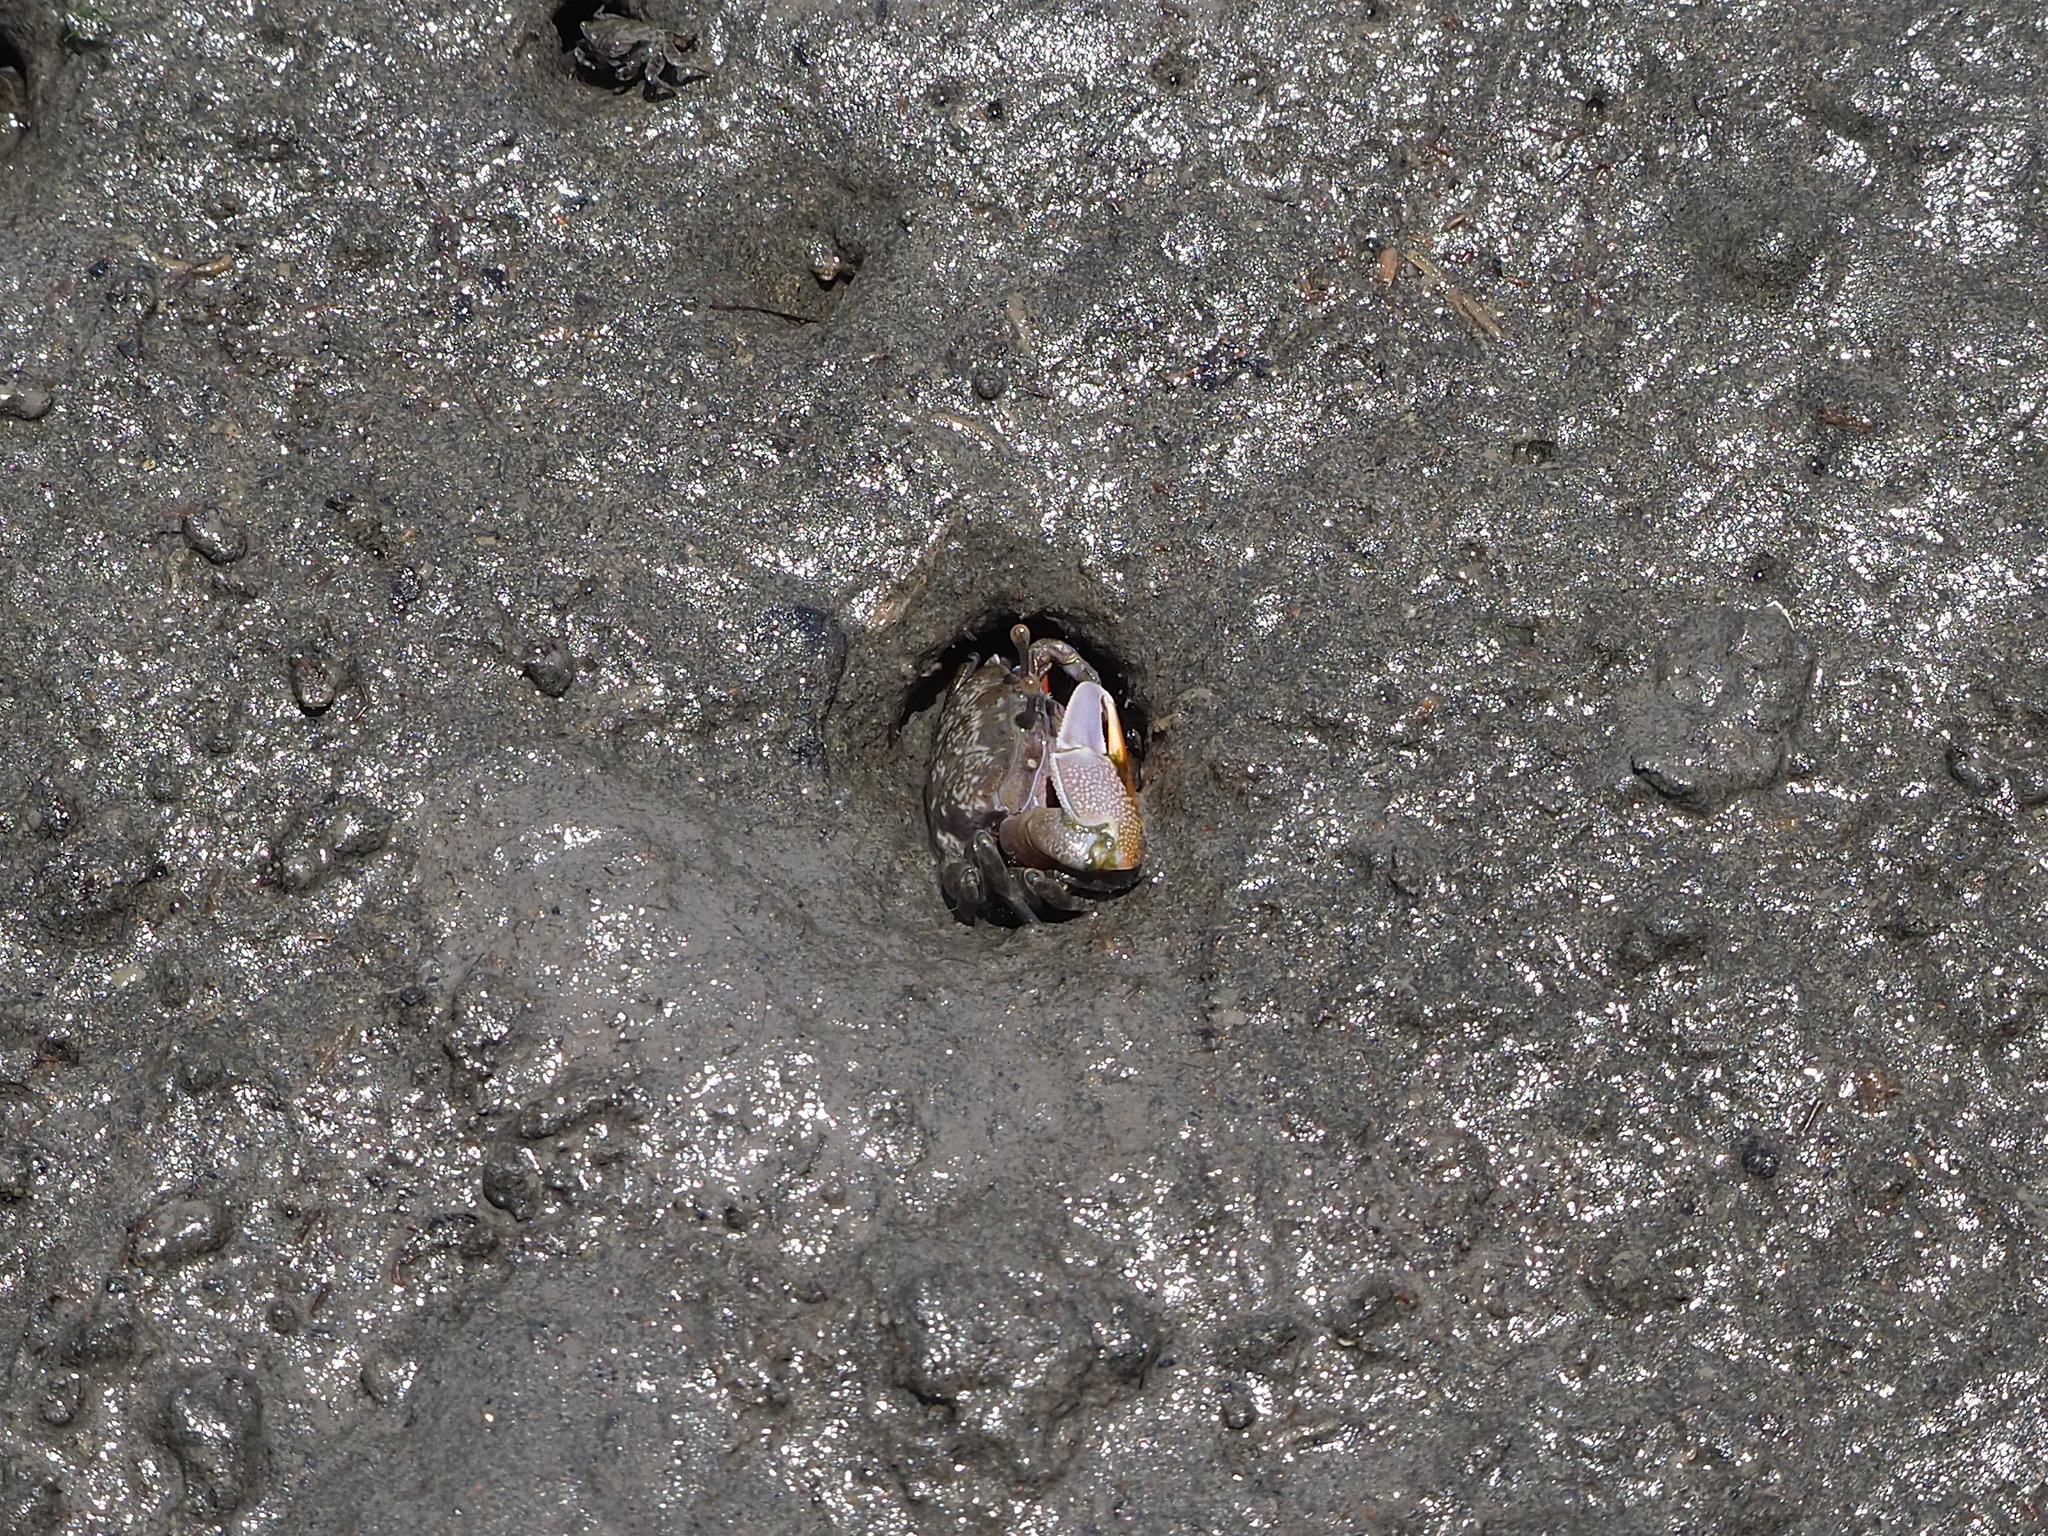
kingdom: Animalia
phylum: Arthropoda
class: Malacostraca
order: Decapoda
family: Ocypodidae
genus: Gelasimus
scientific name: Gelasimus borealis
